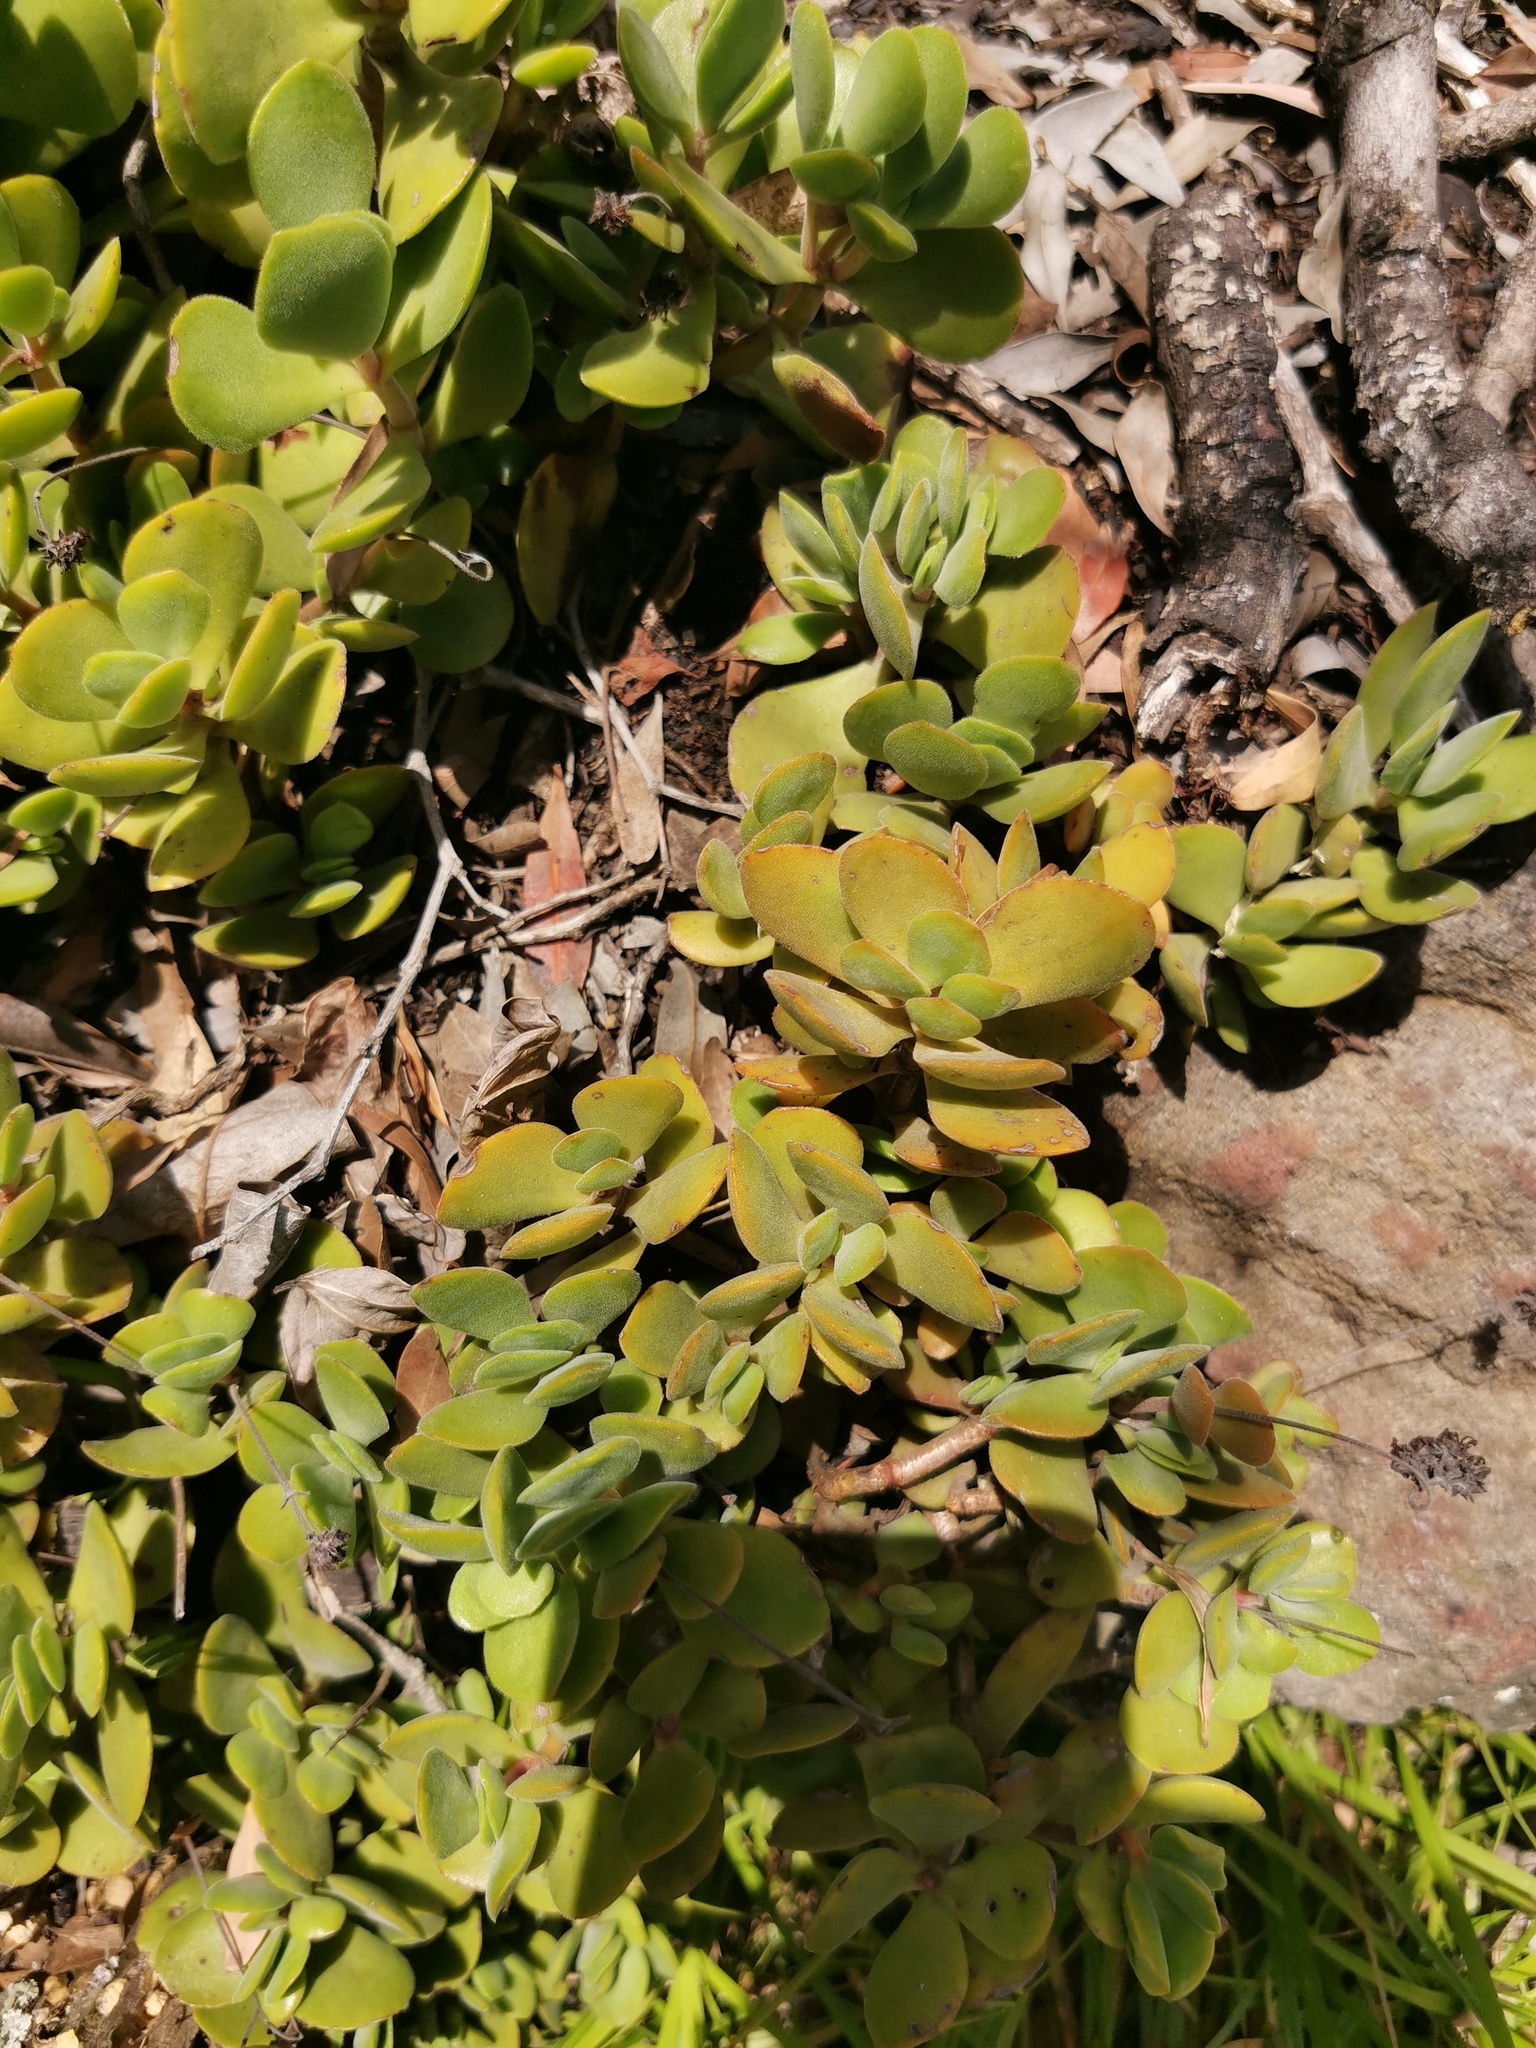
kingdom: Plantae
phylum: Tracheophyta
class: Magnoliopsida
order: Saxifragales
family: Crassulaceae
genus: Crassula
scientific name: Crassula globularioides
